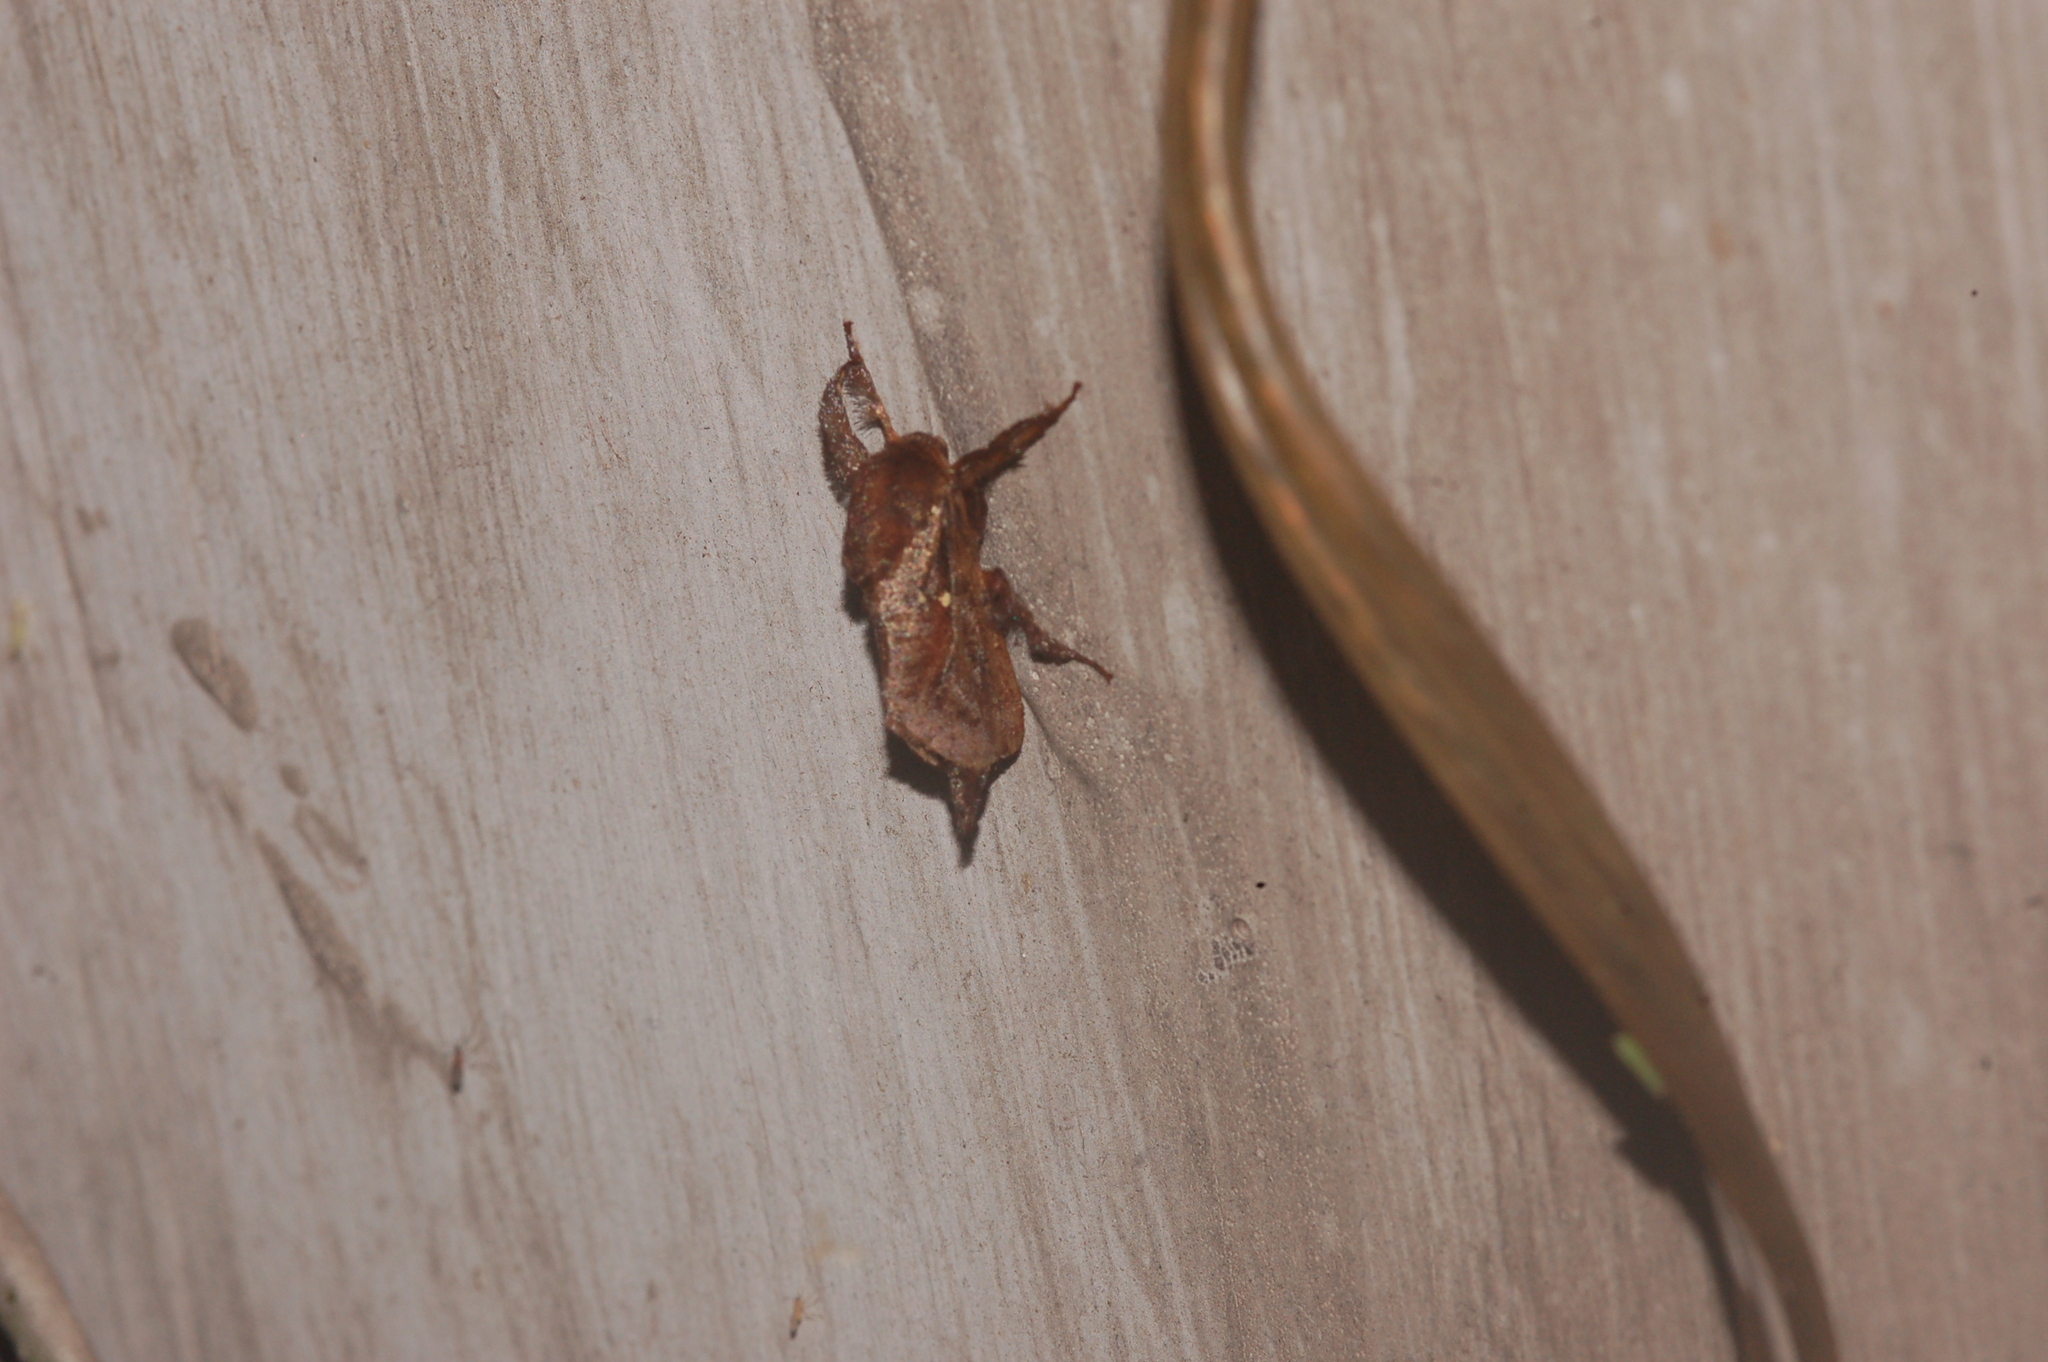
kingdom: Animalia
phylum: Arthropoda
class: Insecta
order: Lepidoptera
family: Limacodidae
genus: Acharia
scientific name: Acharia stimulea
